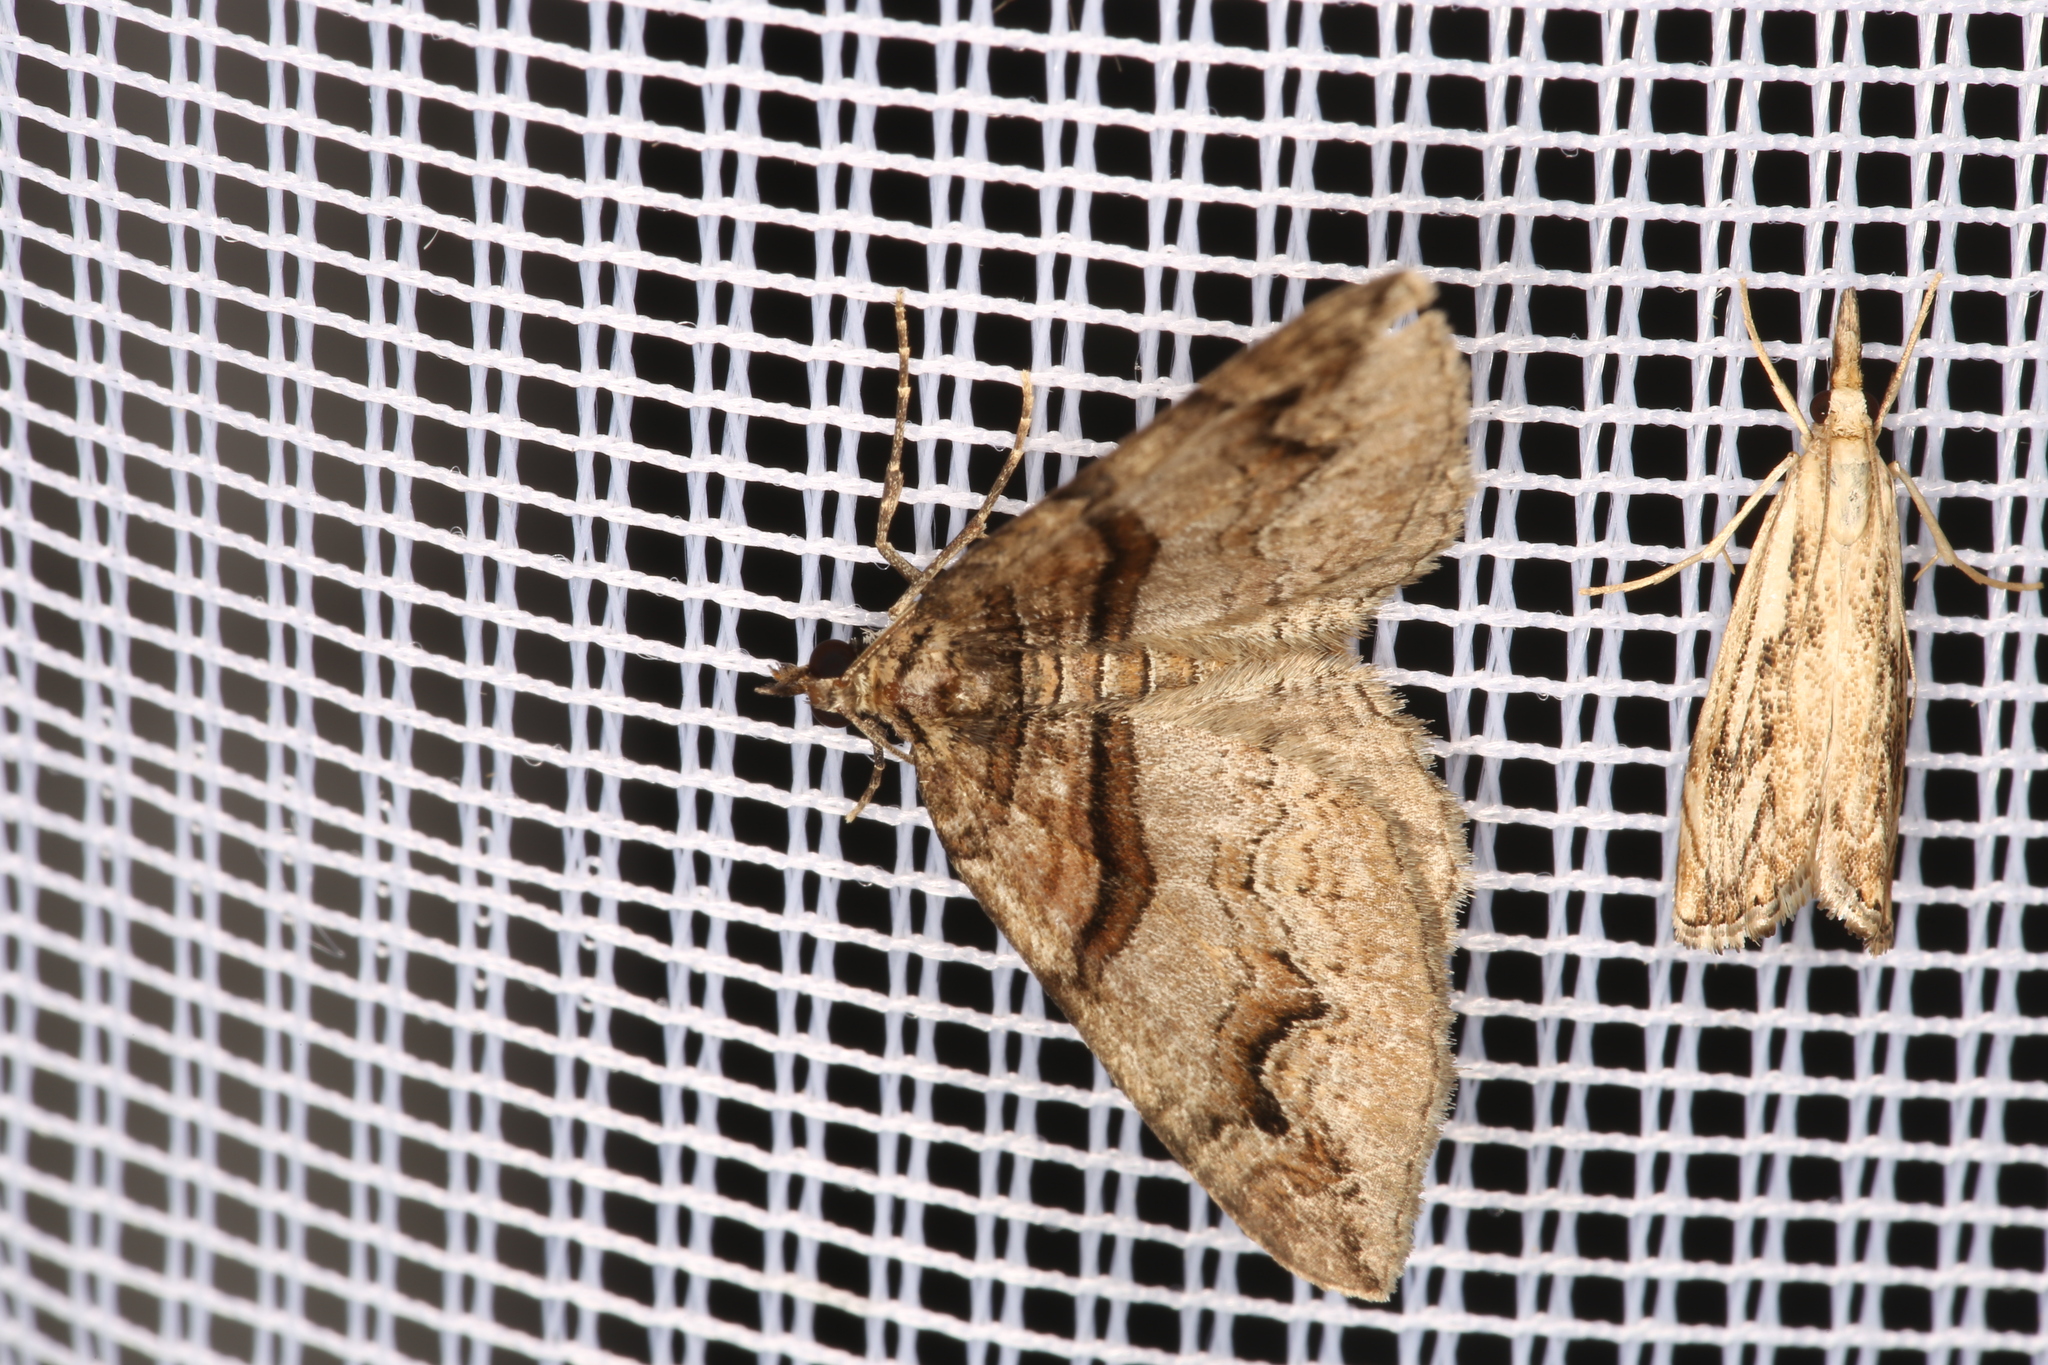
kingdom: Animalia
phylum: Arthropoda
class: Insecta
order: Lepidoptera
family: Geometridae
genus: Pareulype
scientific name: Pareulype berberata
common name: Barberry carpet
